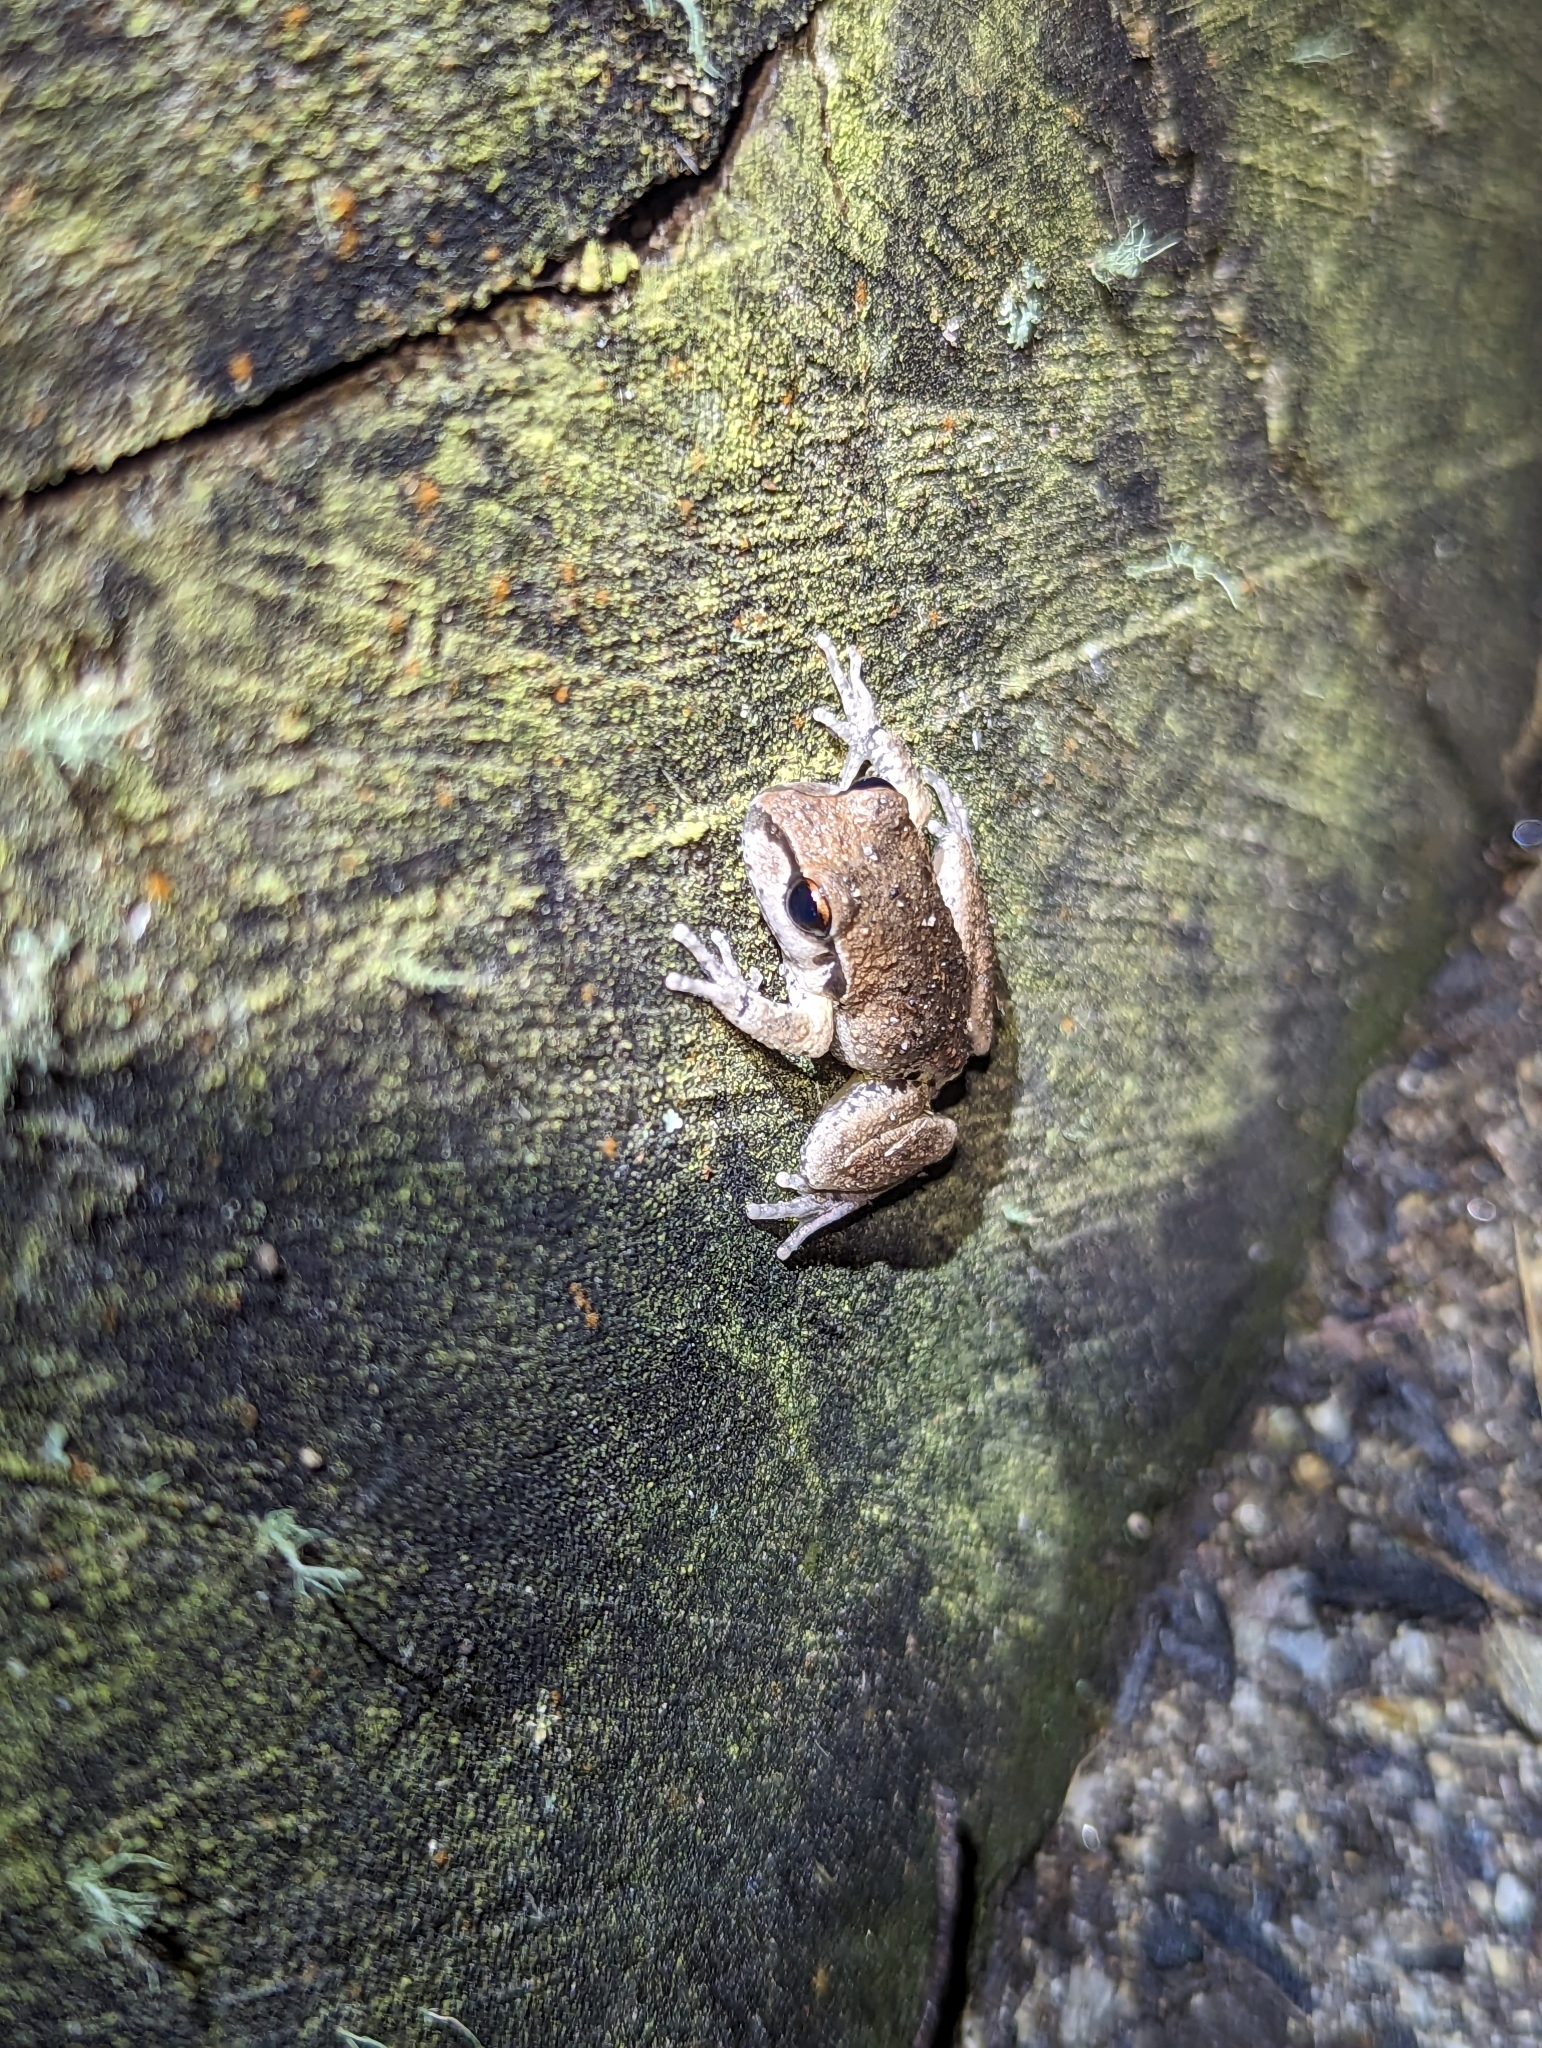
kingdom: Animalia
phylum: Chordata
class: Amphibia
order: Anura
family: Pelodryadidae
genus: Ranoidea
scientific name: Ranoidea lesueurii
